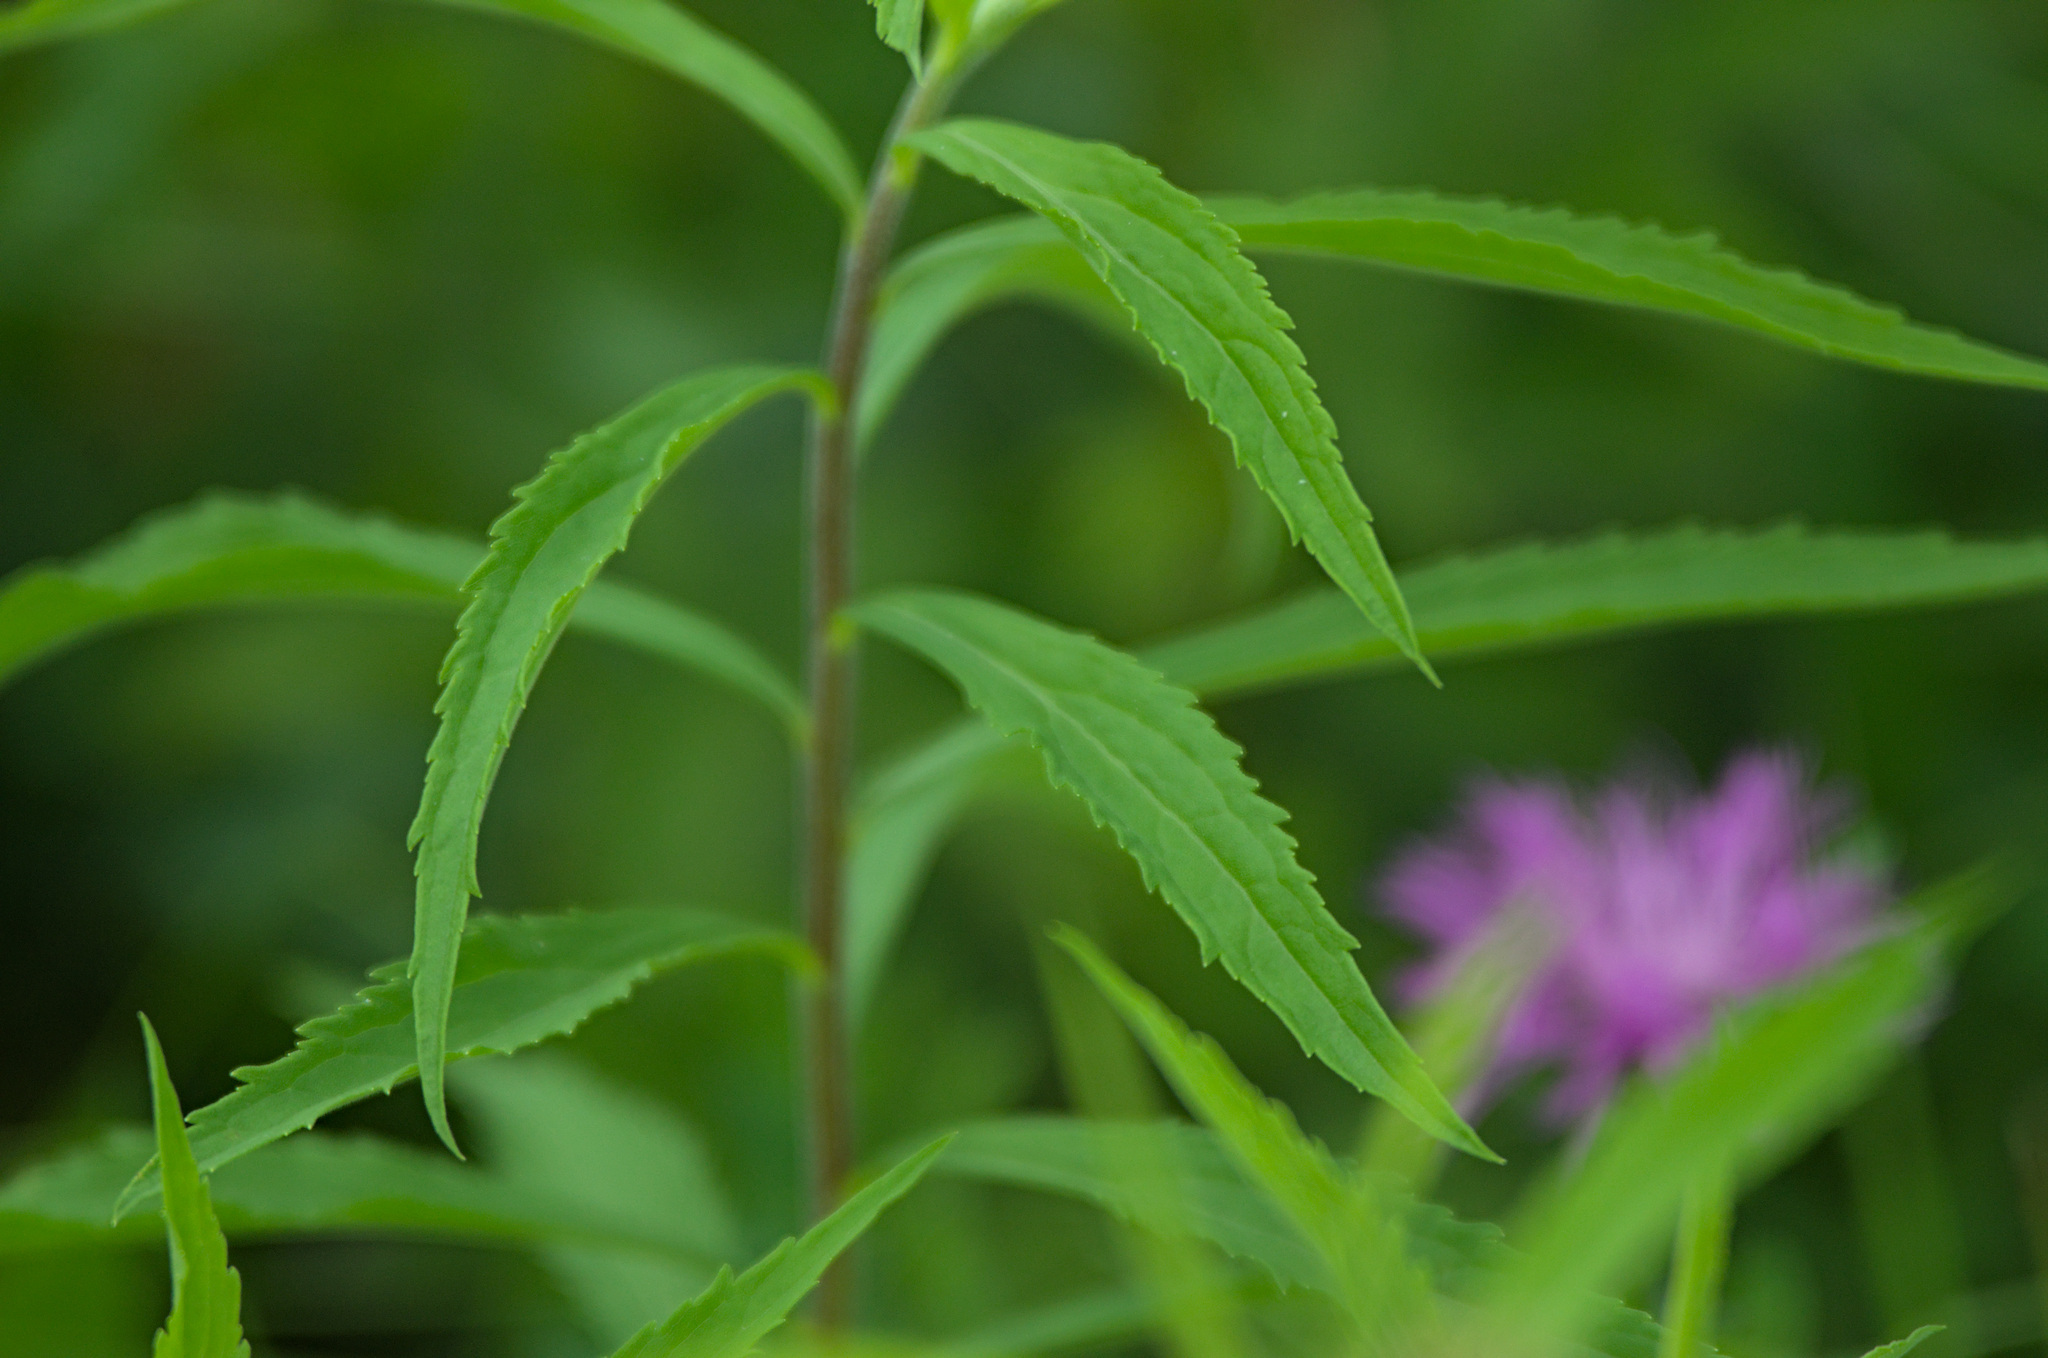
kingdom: Plantae
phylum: Tracheophyta
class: Magnoliopsida
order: Asterales
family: Asteraceae
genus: Solidago
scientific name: Solidago canadensis
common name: Canada goldenrod
